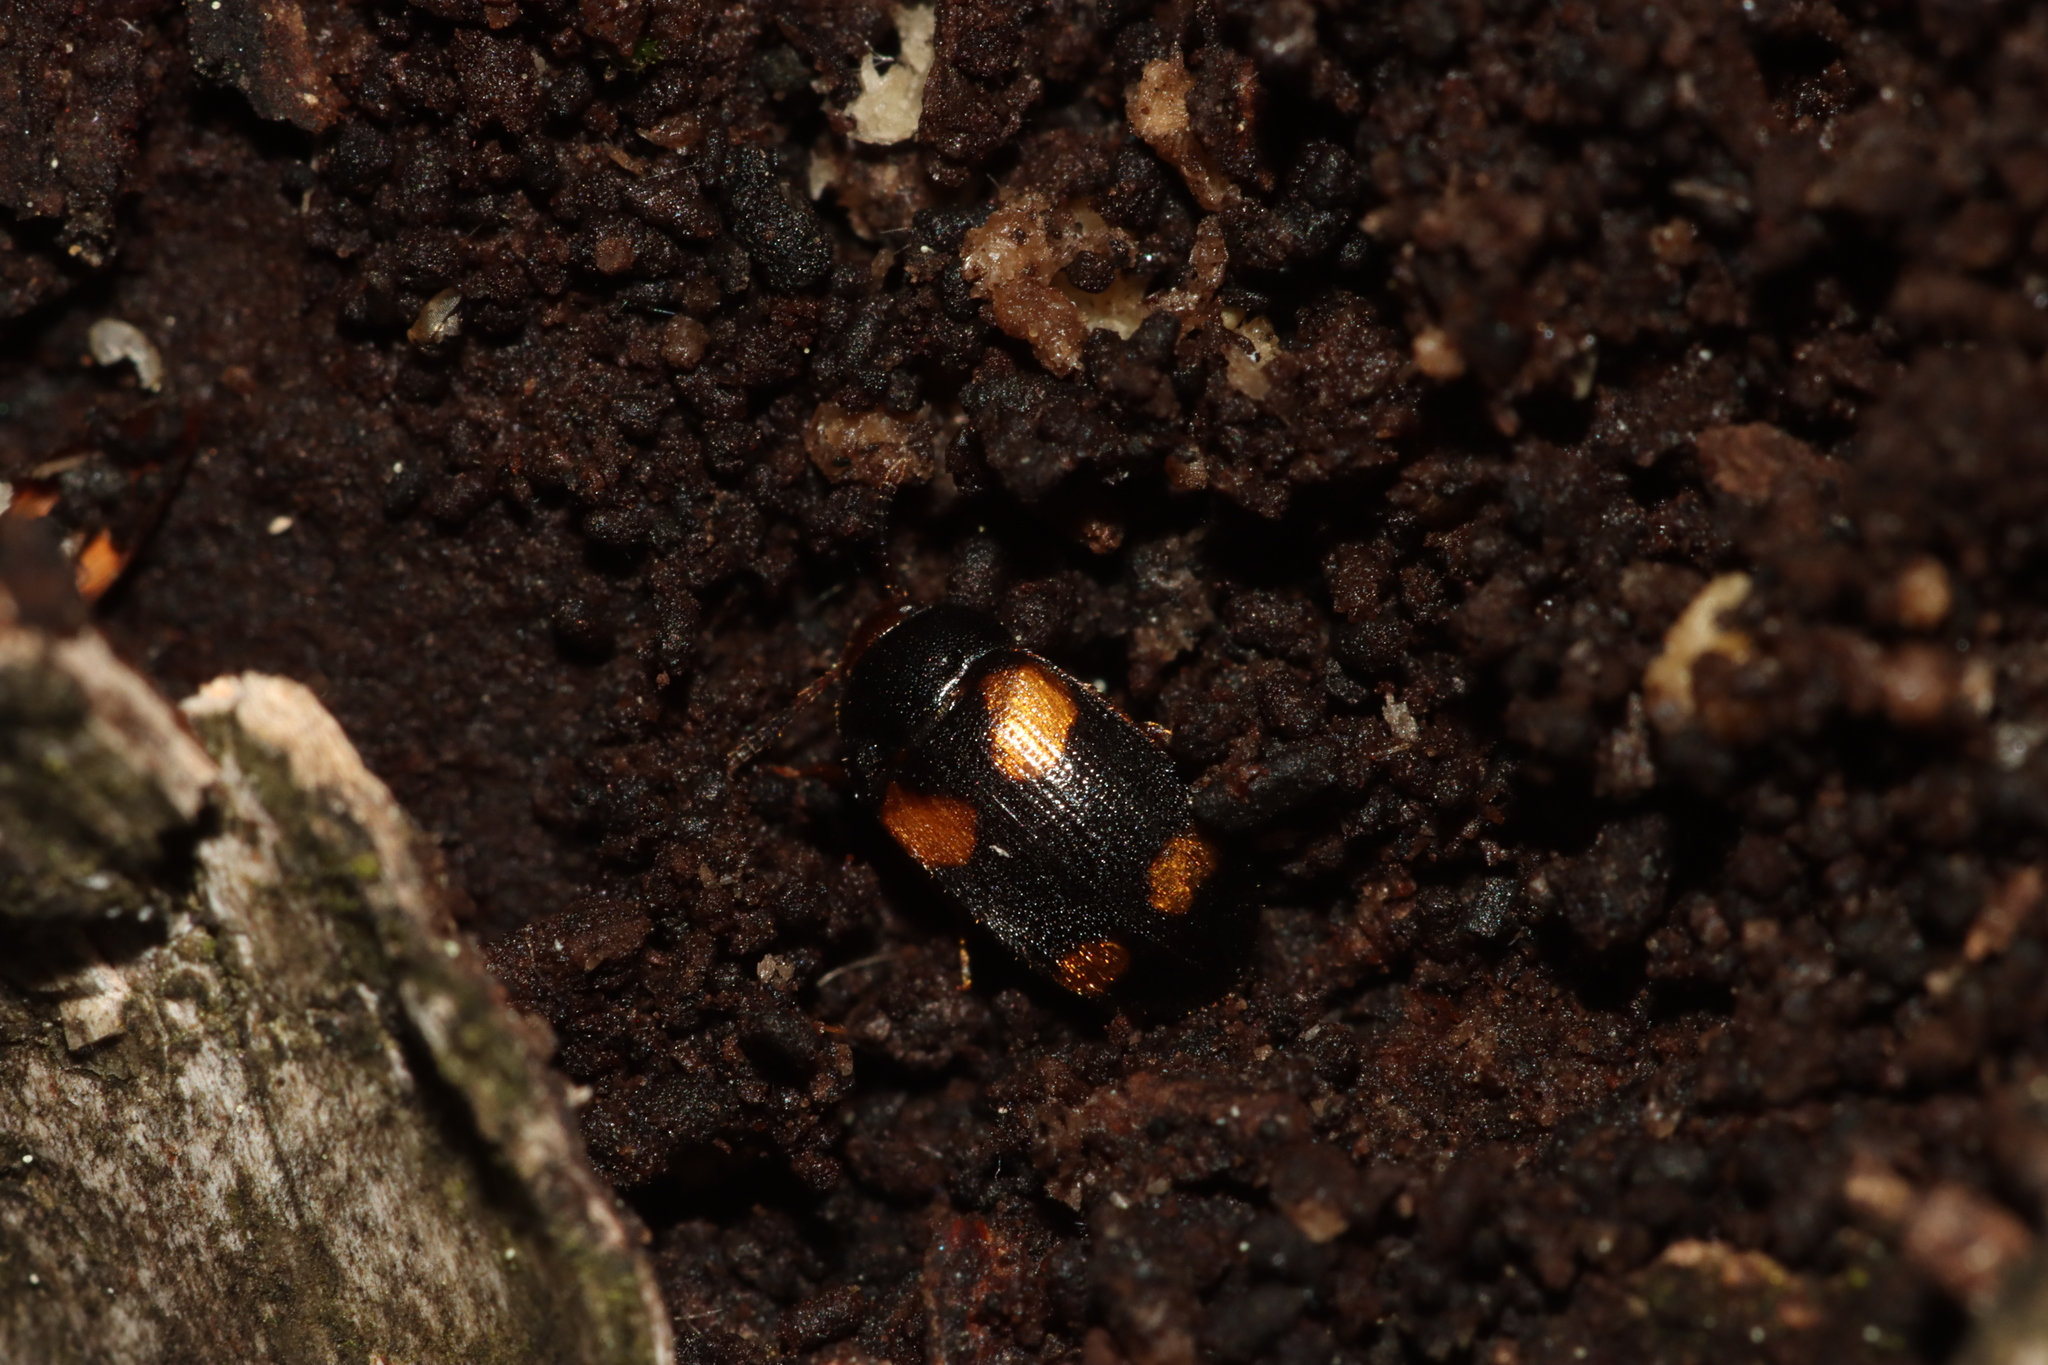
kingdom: Animalia
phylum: Arthropoda
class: Insecta
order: Coleoptera
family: Mycetophagidae
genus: Mycetophagus
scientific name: Mycetophagus quadripustulatus
